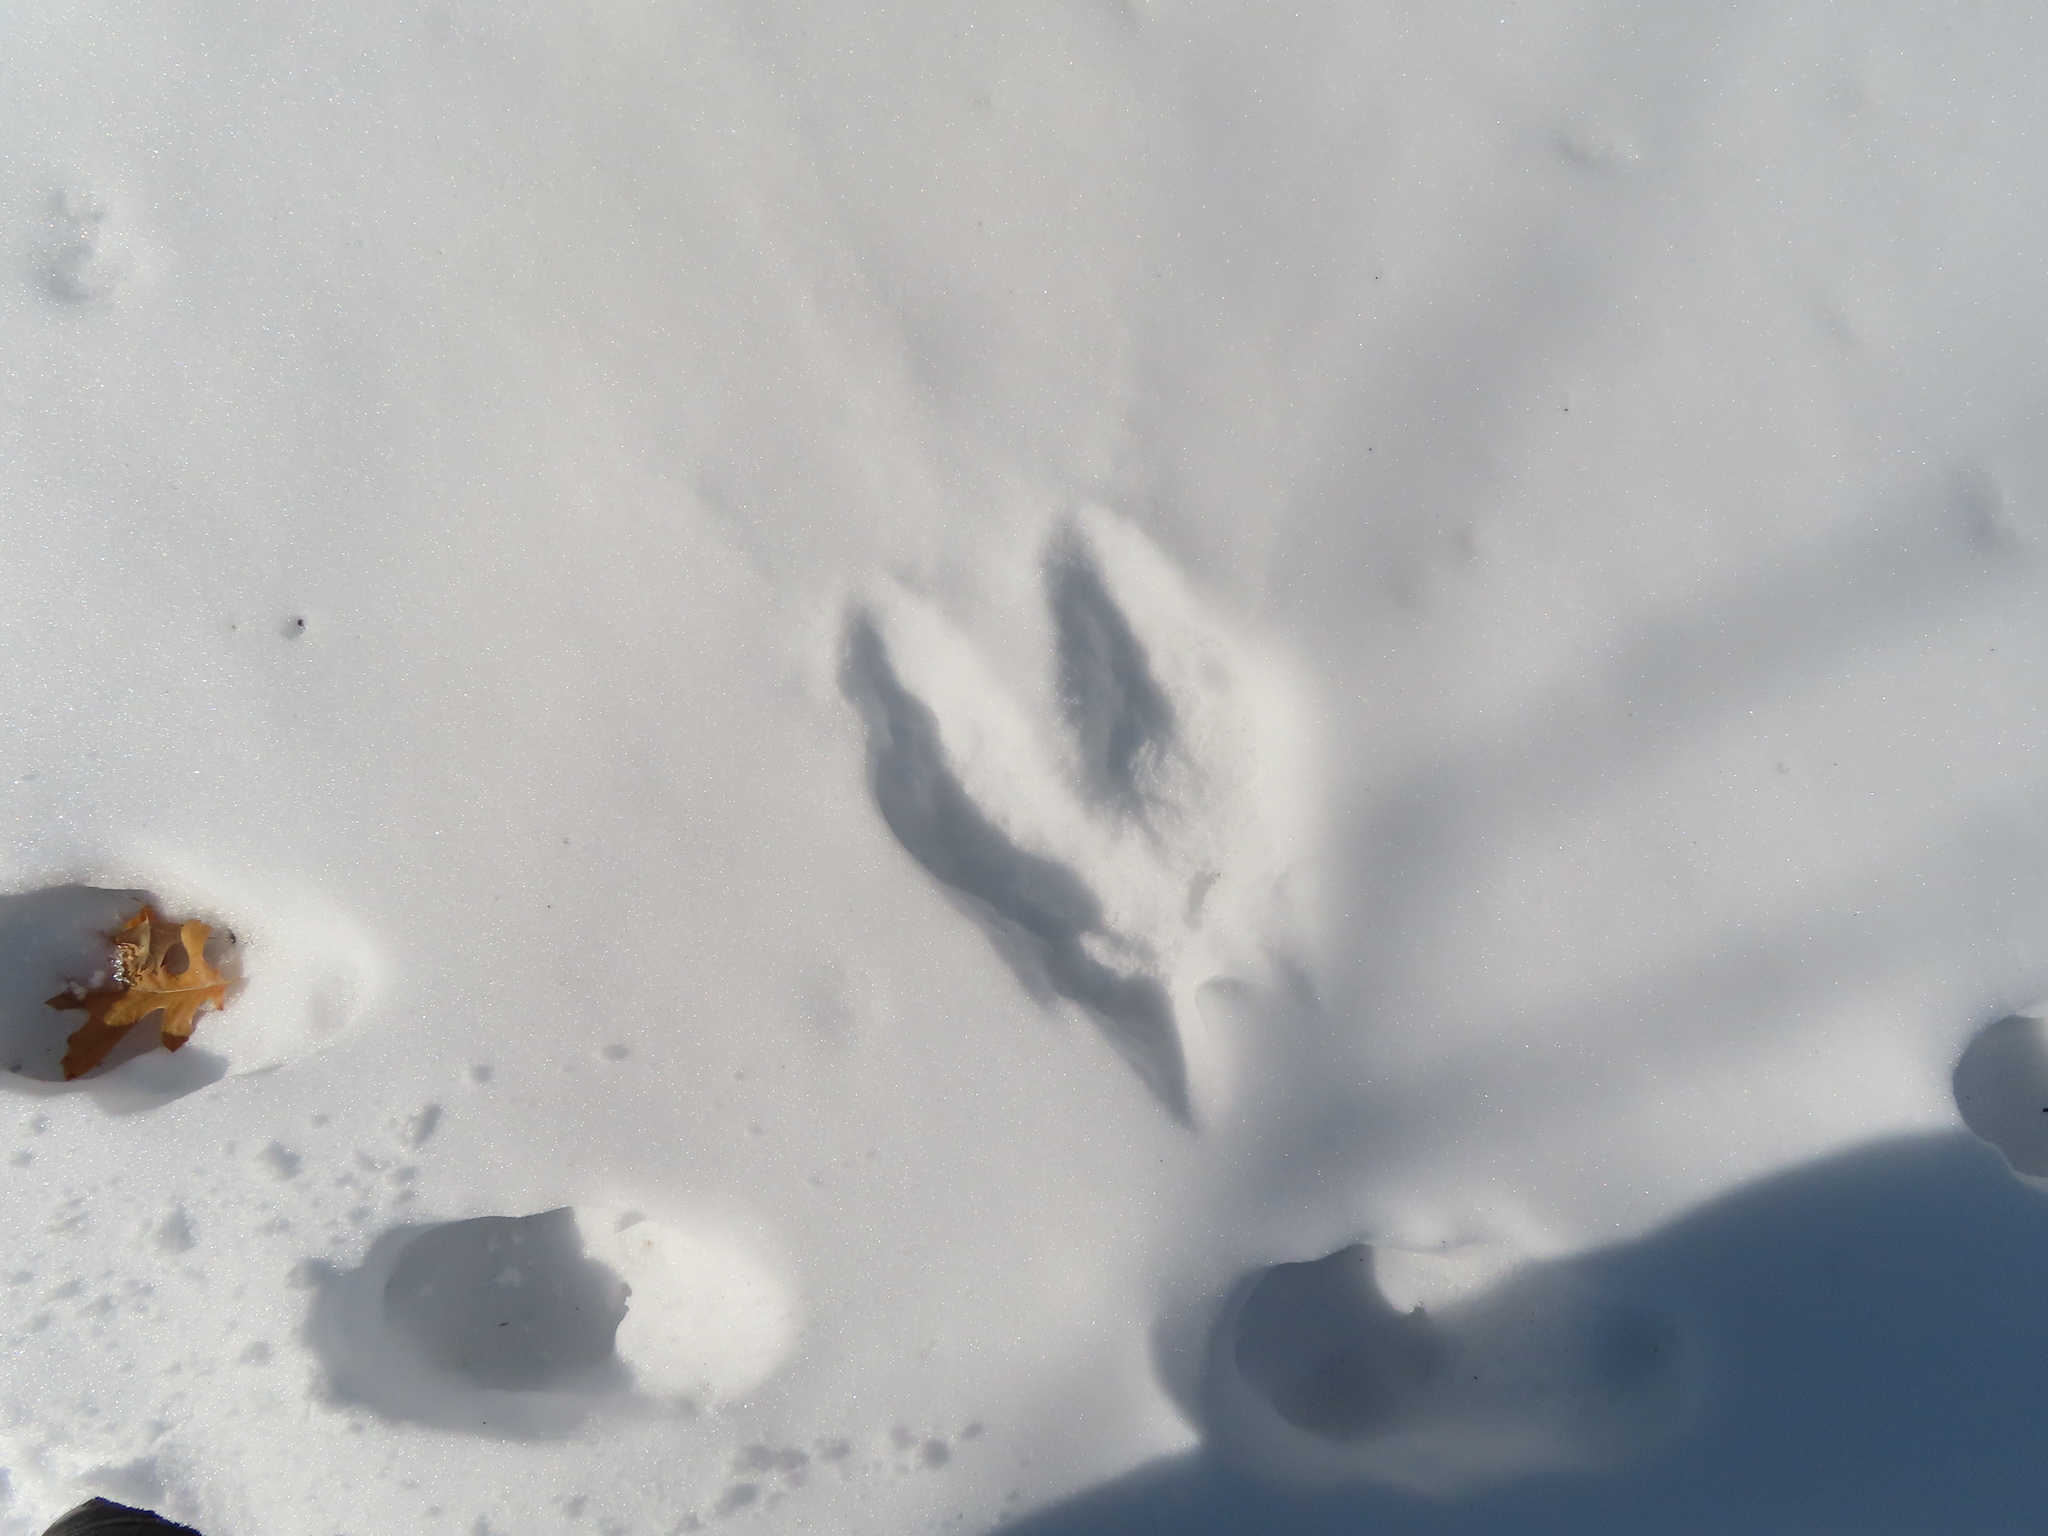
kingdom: Animalia
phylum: Chordata
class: Mammalia
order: Rodentia
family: Sciuridae
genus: Sciurus
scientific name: Sciurus carolinensis
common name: Eastern gray squirrel
